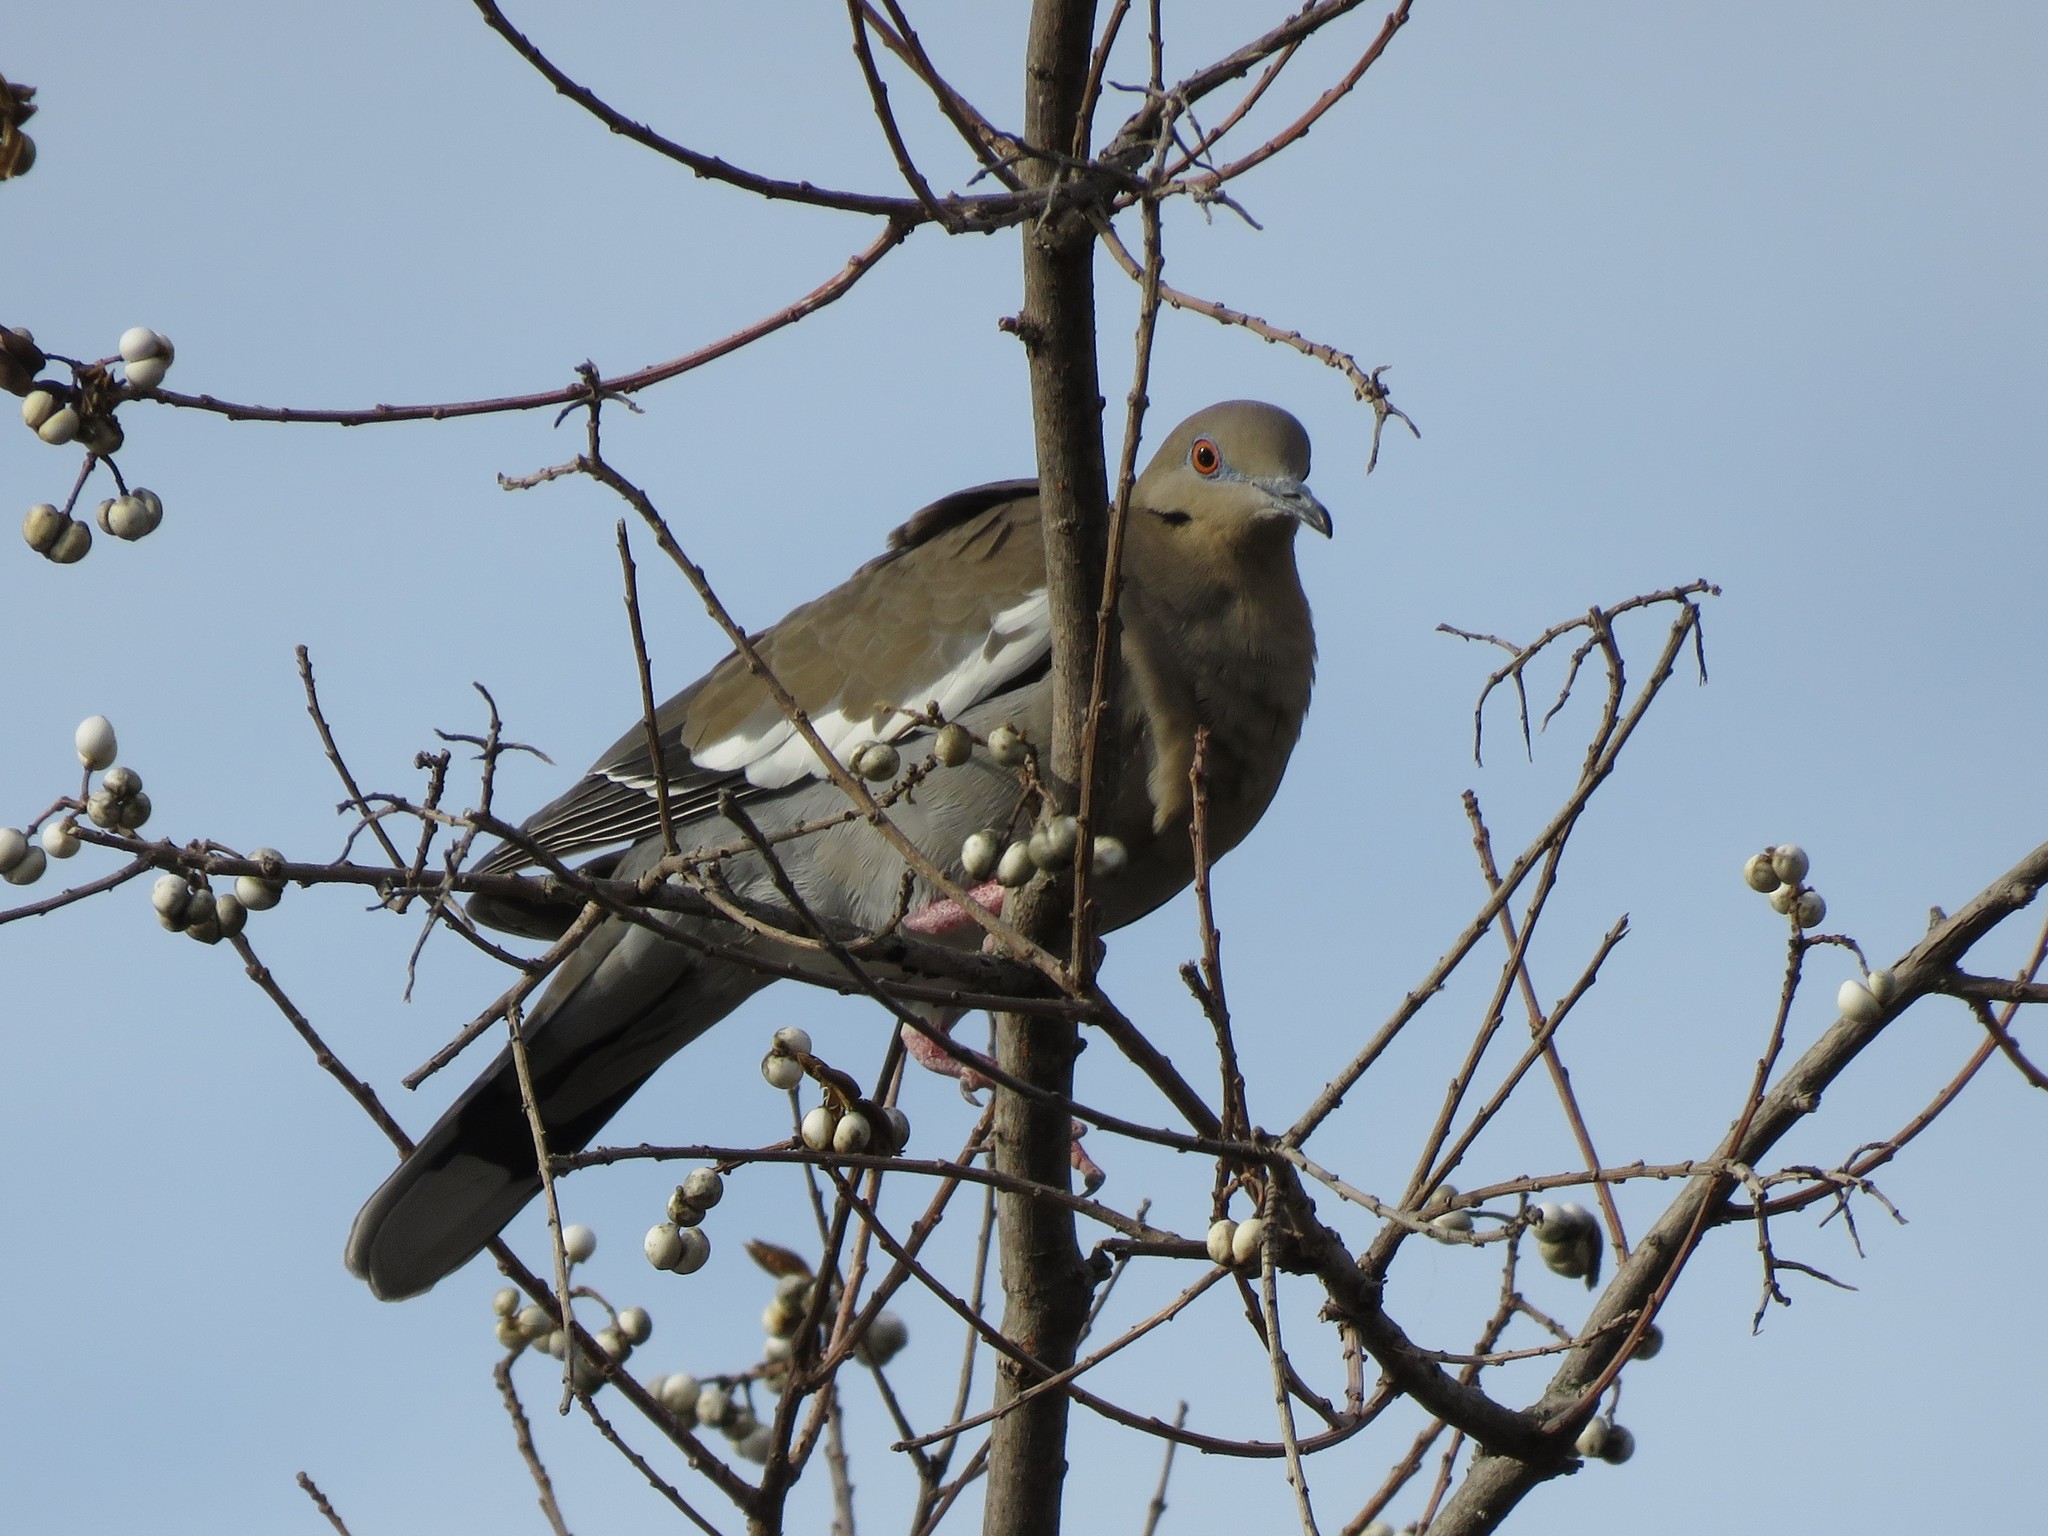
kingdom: Animalia
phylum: Chordata
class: Aves
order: Columbiformes
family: Columbidae
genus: Zenaida
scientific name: Zenaida asiatica
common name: White-winged dove
